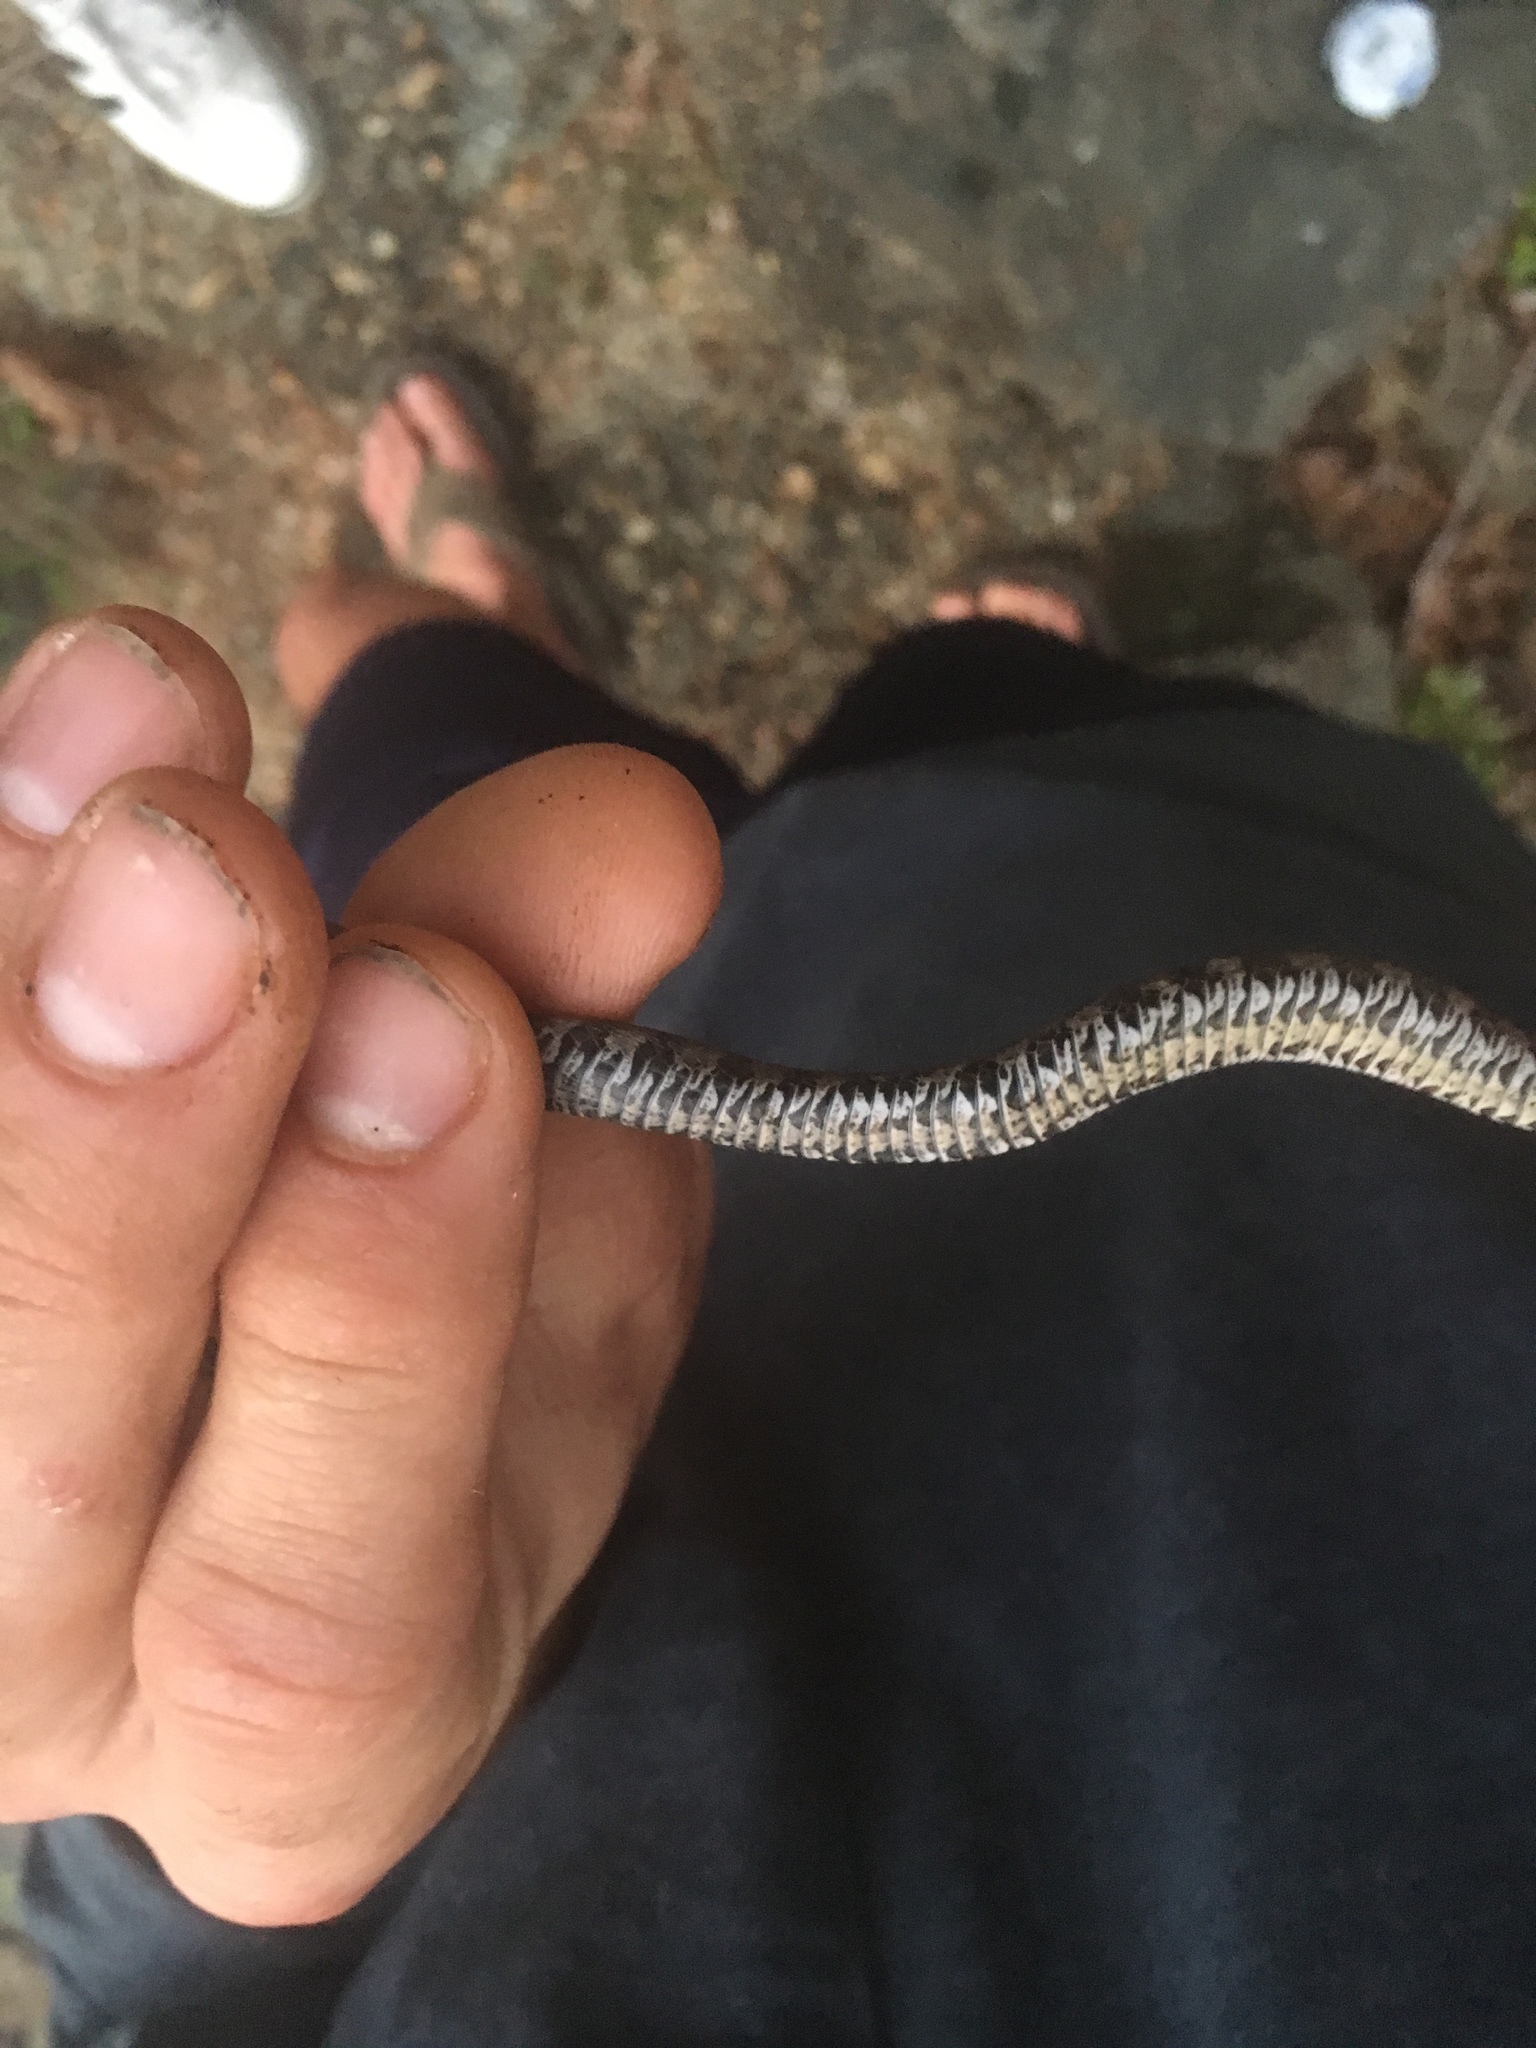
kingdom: Animalia
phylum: Chordata
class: Squamata
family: Colubridae
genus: Nerodia
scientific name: Nerodia sipedon
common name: Northern water snake
